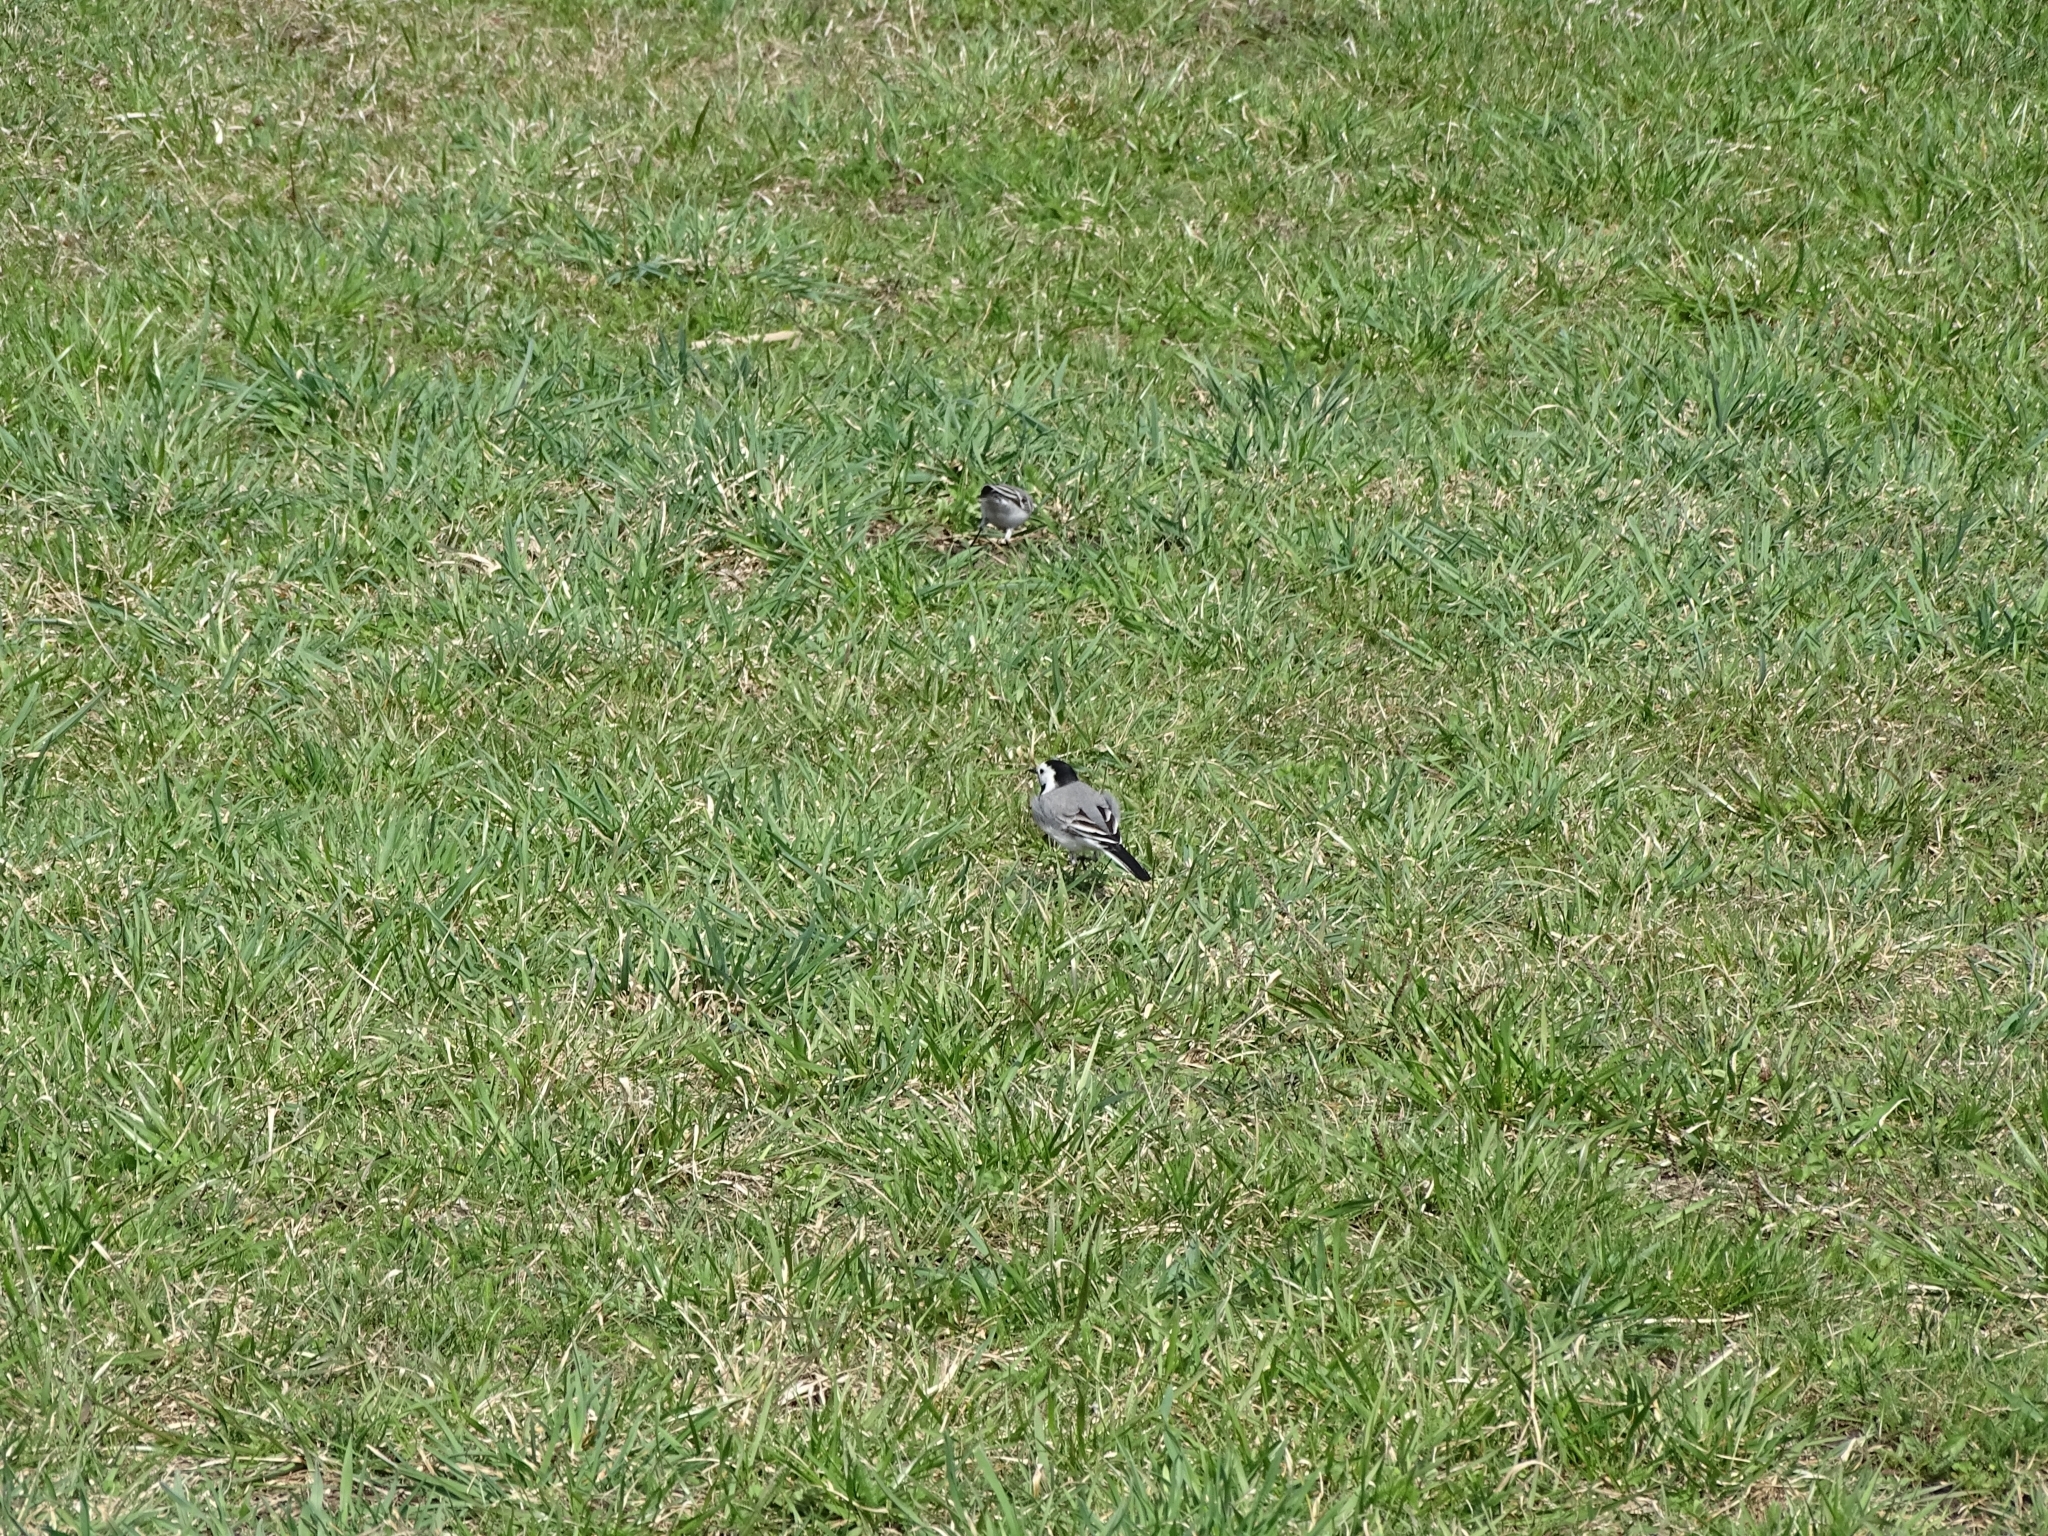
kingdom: Animalia
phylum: Chordata
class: Aves
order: Passeriformes
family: Motacillidae
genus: Motacilla
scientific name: Motacilla alba
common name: White wagtail
